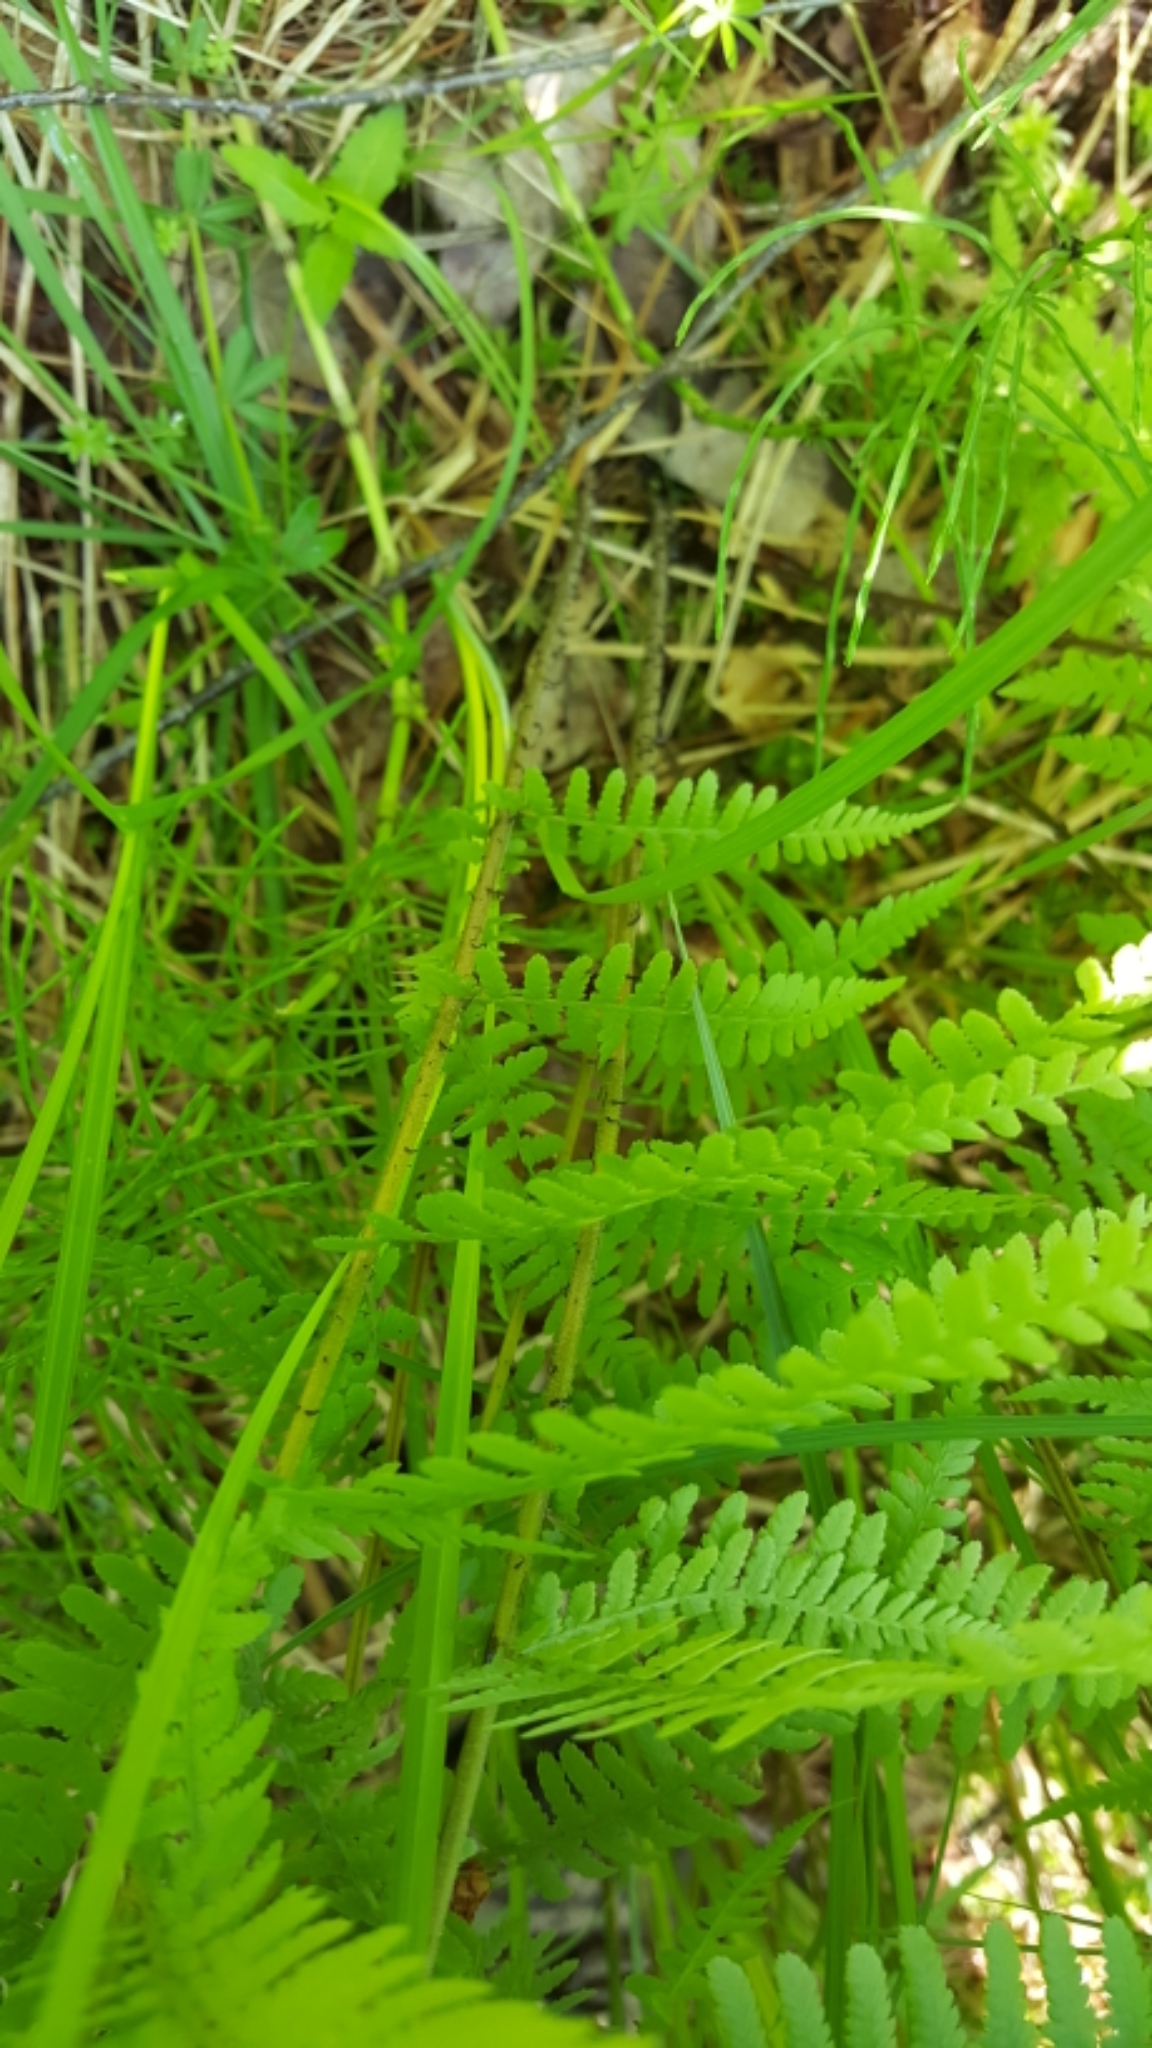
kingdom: Plantae
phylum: Tracheophyta
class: Polypodiopsida
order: Polypodiales
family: Athyriaceae
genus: Athyrium
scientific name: Athyrium angustum
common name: Northern lady fern
